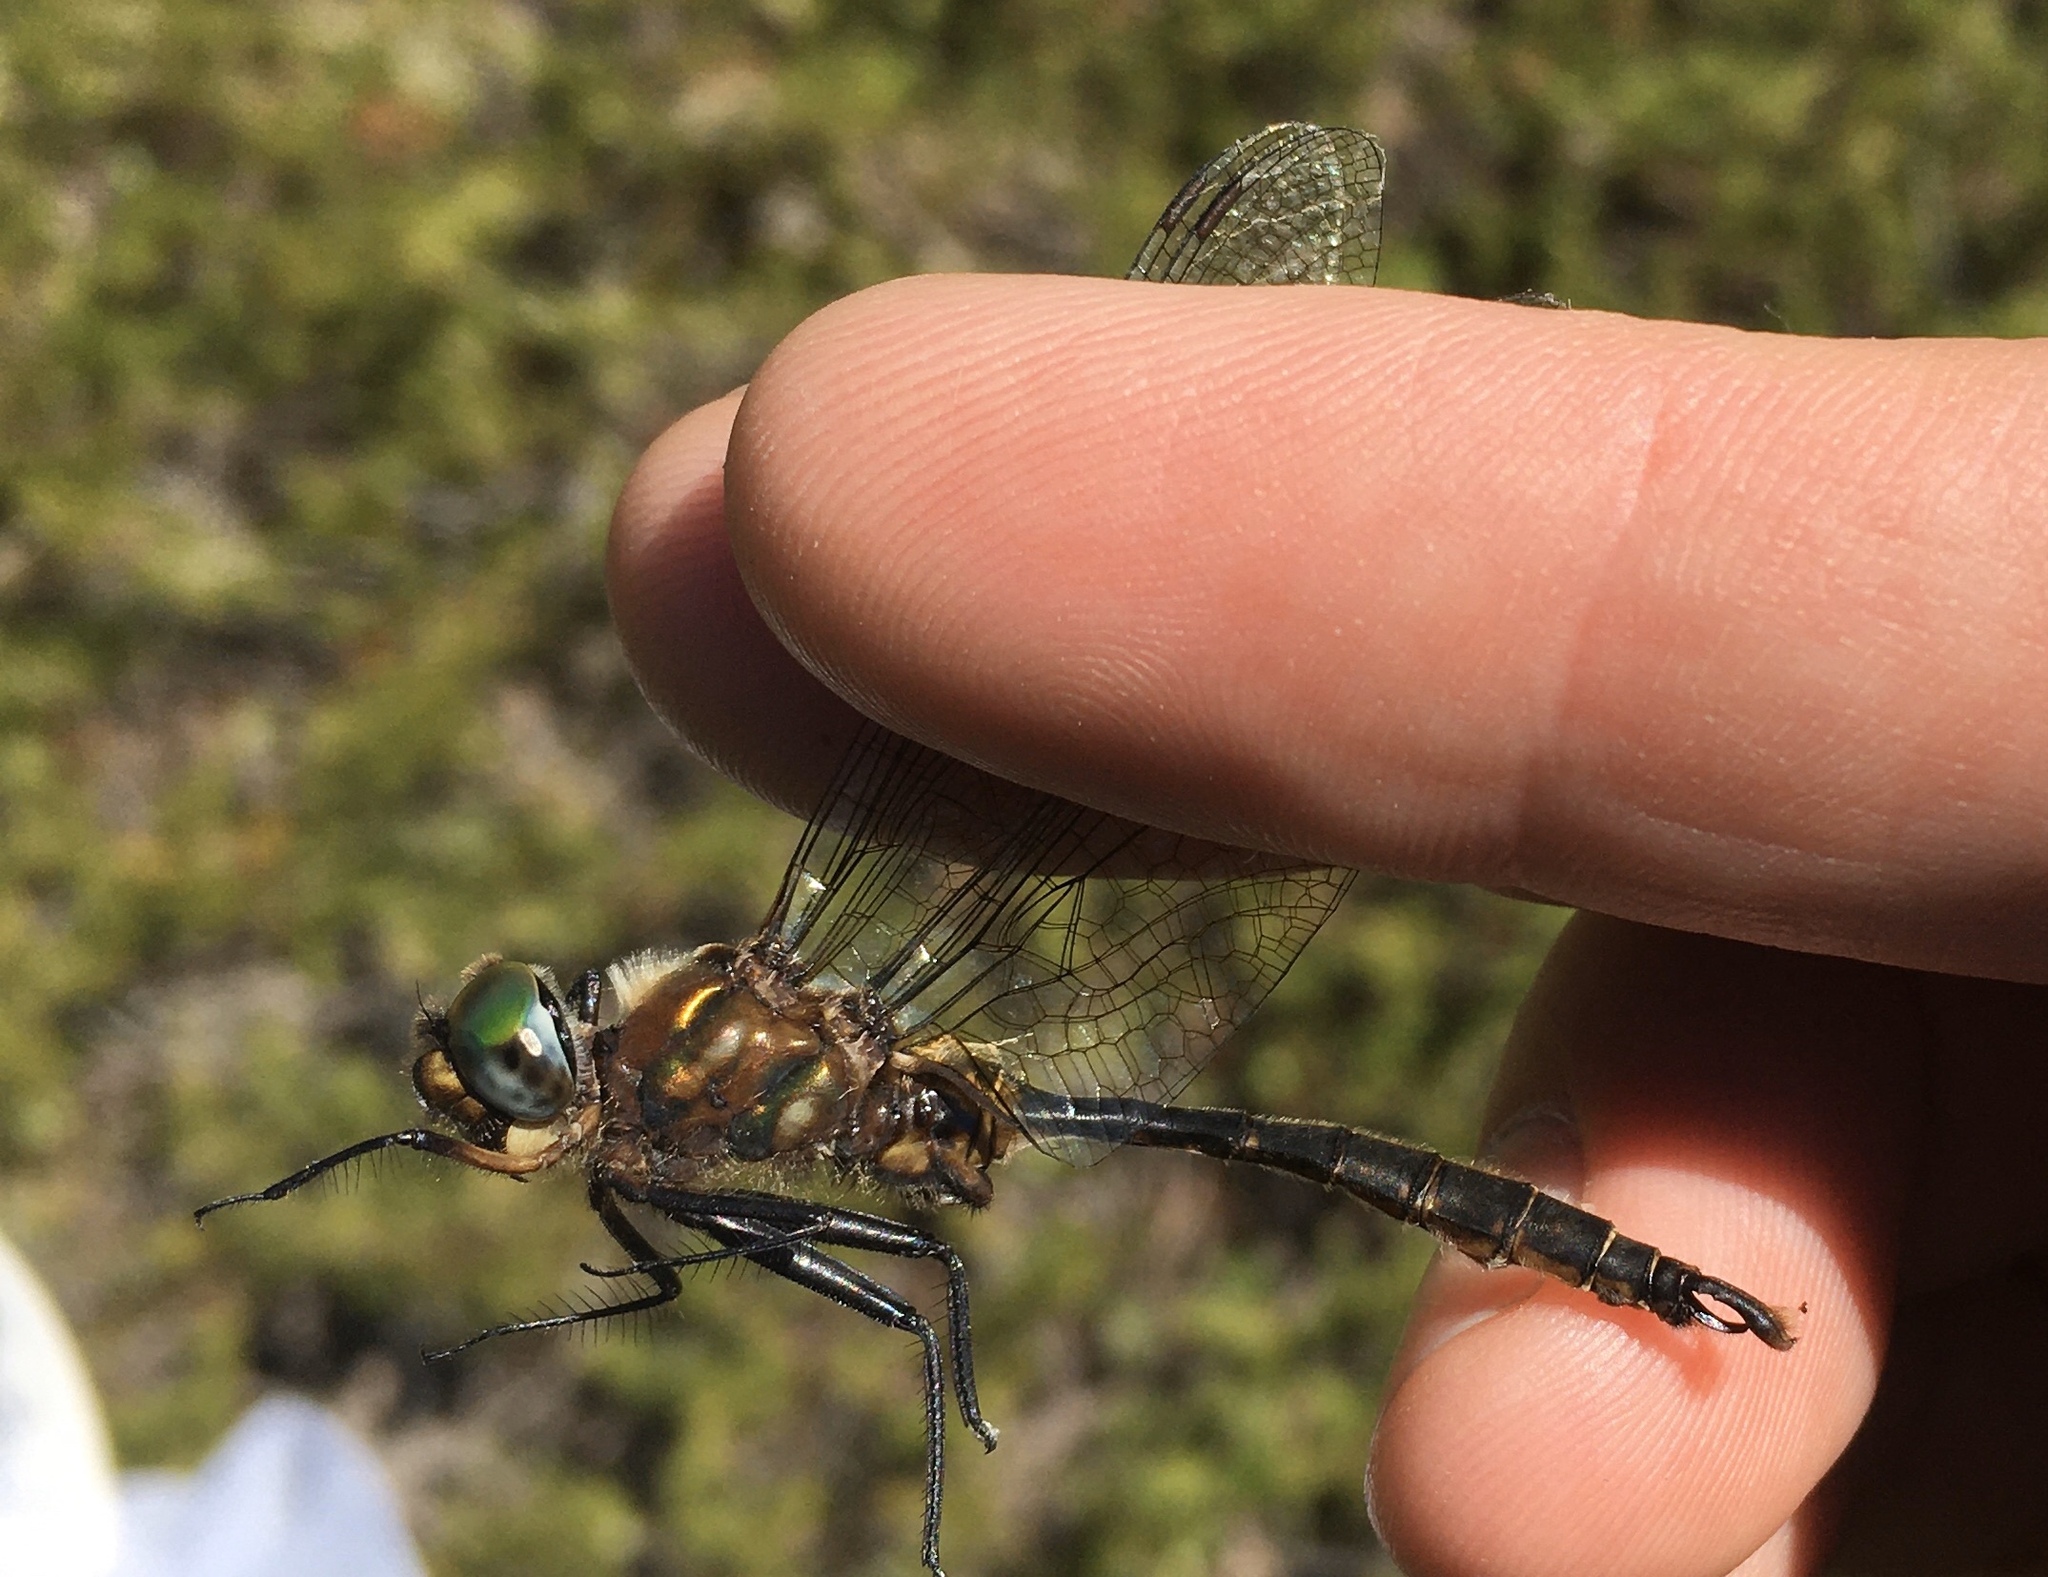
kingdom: Animalia
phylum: Arthropoda
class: Insecta
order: Odonata
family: Corduliidae
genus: Somatochlora
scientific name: Somatochlora walshii
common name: Brush-tipped emerald
